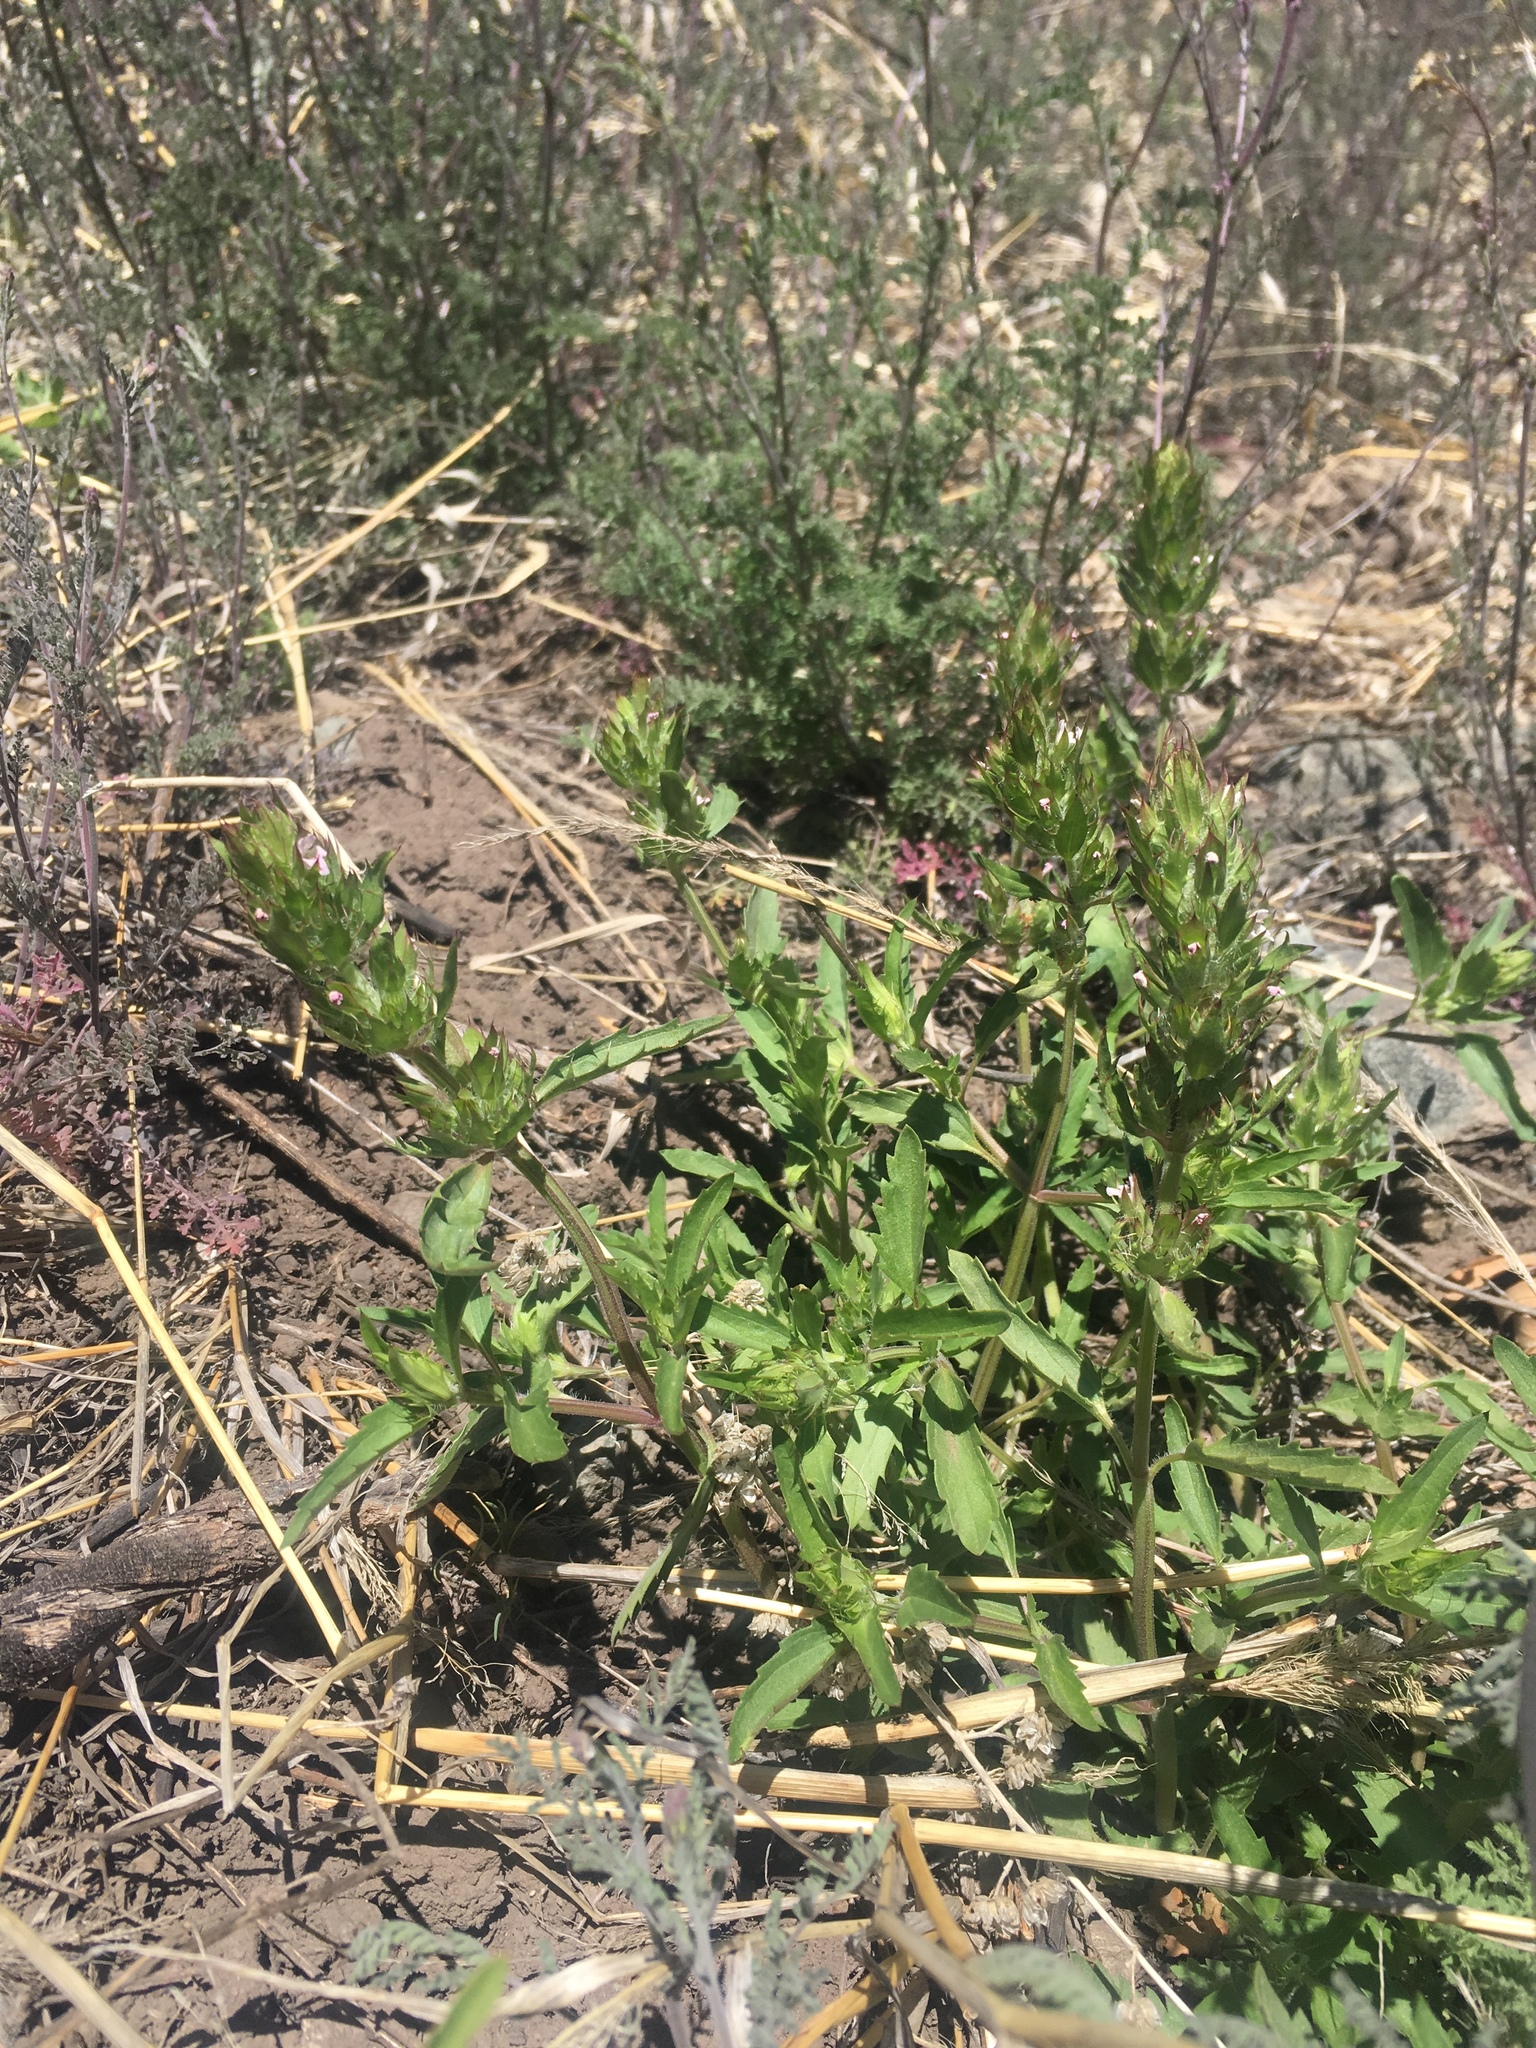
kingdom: Plantae
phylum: Tracheophyta
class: Magnoliopsida
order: Lamiales
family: Lamiaceae
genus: Dracocephalum
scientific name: Dracocephalum parviflorum
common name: American dragonhead
